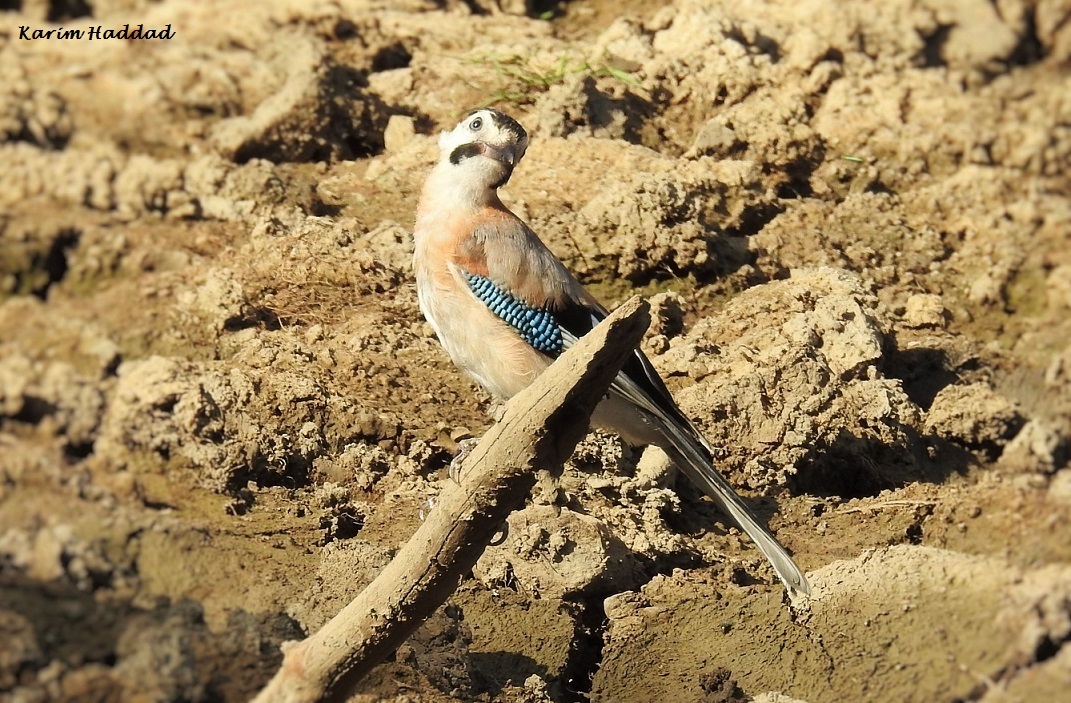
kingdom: Animalia
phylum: Chordata
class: Aves
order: Passeriformes
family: Corvidae
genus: Garrulus
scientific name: Garrulus glandarius
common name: Eurasian jay
